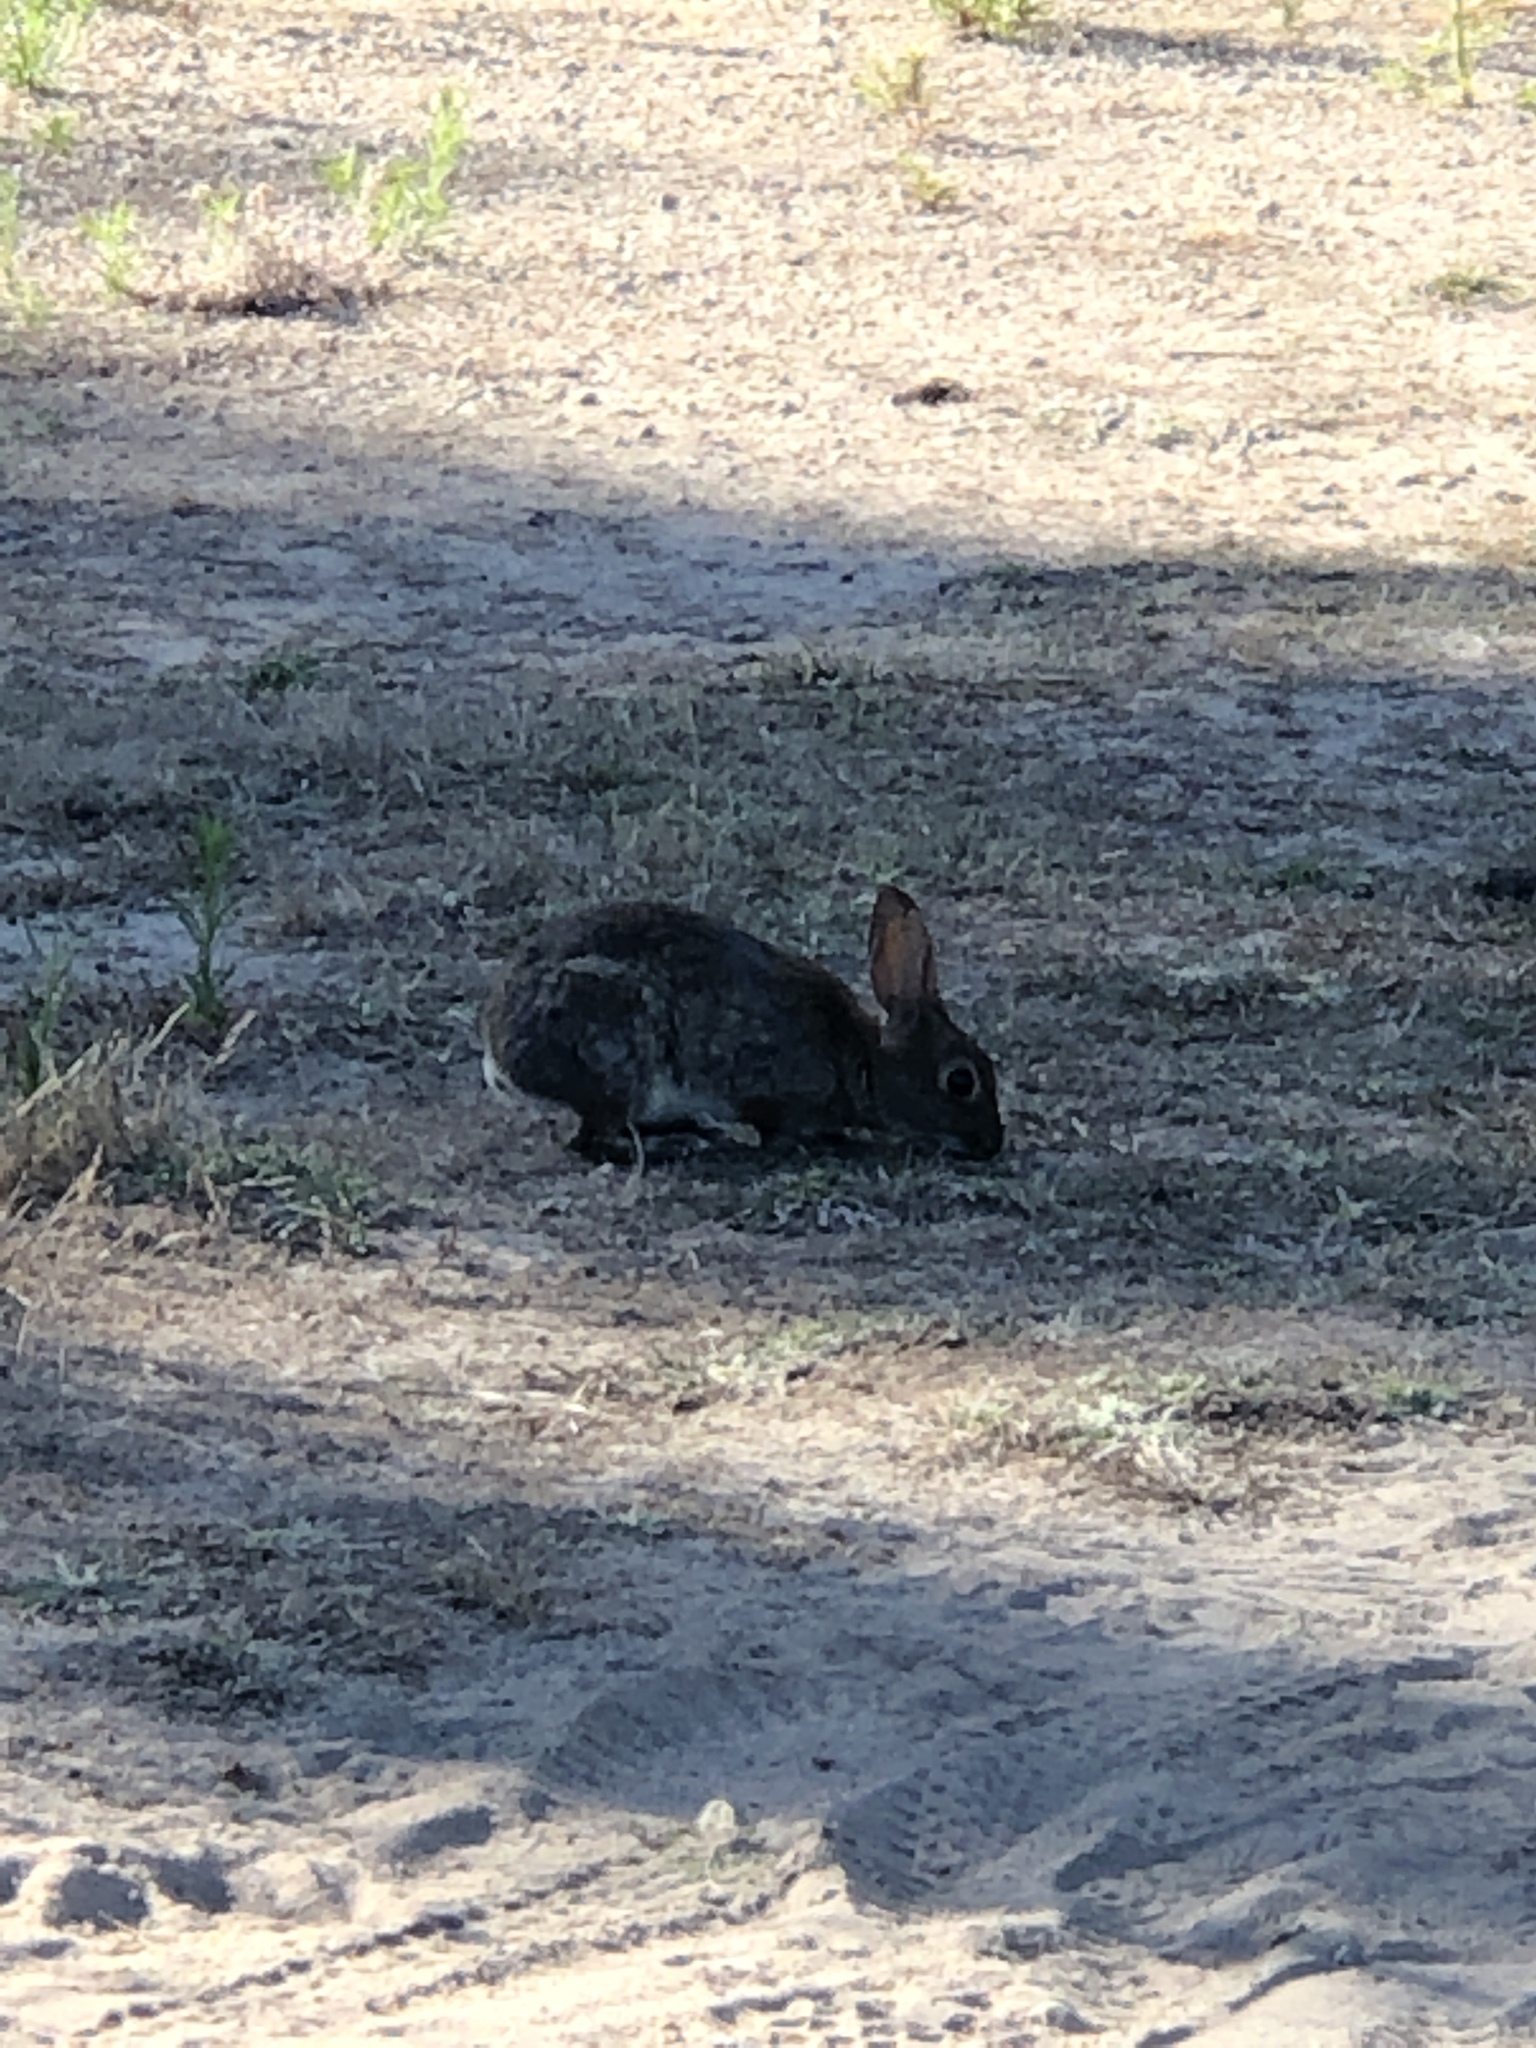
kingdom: Animalia
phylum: Chordata
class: Mammalia
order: Lagomorpha
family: Leporidae
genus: Sylvilagus
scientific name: Sylvilagus bachmani
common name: Brush rabbit
